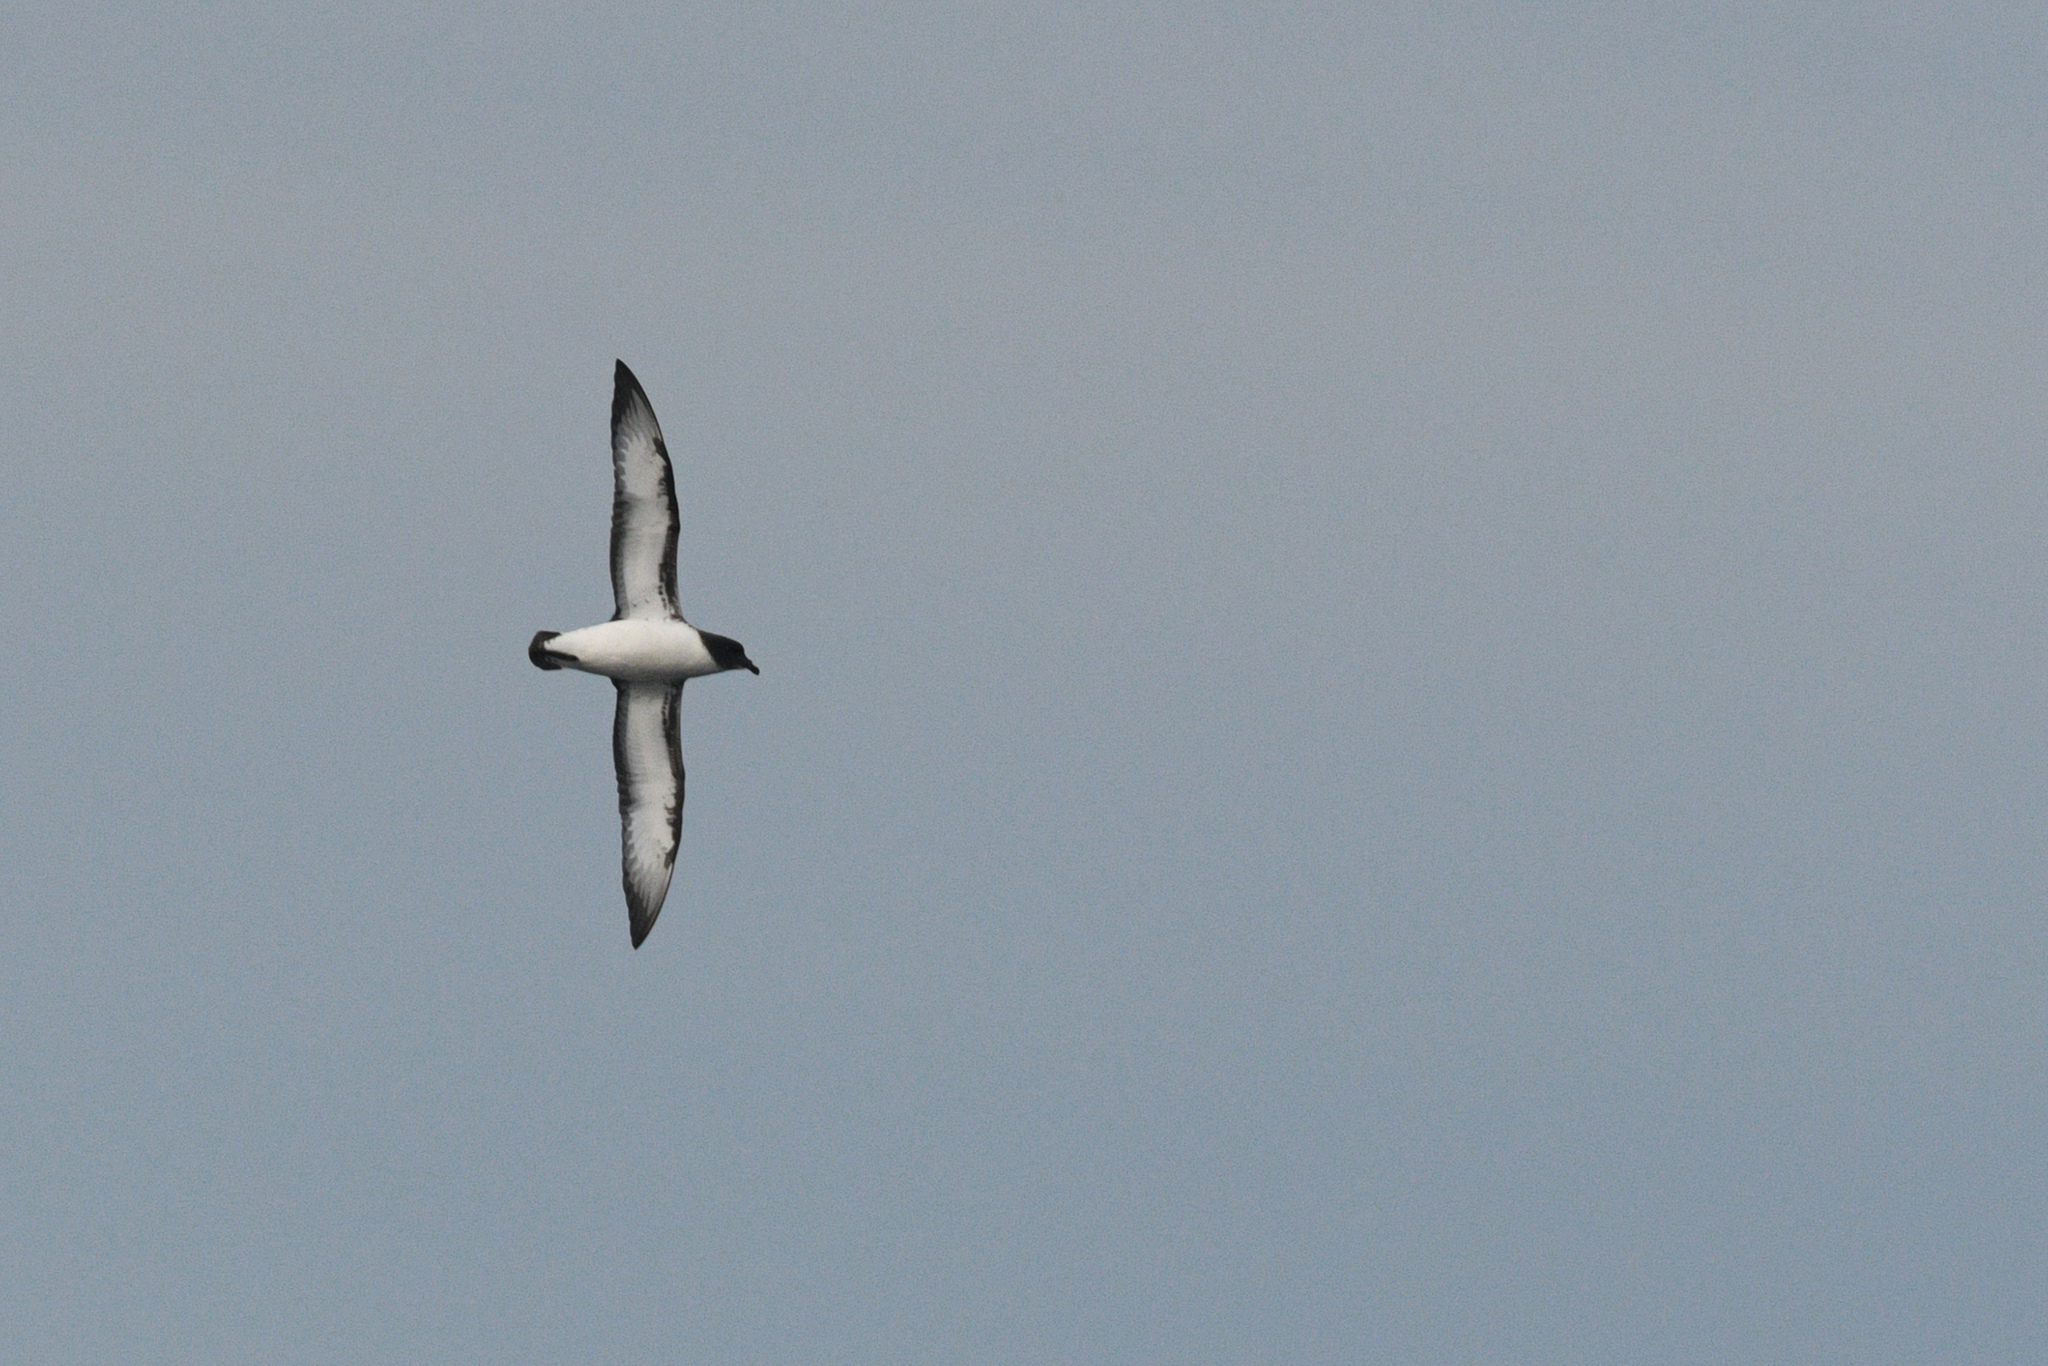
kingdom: Animalia
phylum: Chordata
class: Aves
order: Procellariiformes
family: Procellariidae
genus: Daption
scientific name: Daption capense
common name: Cape petrel
